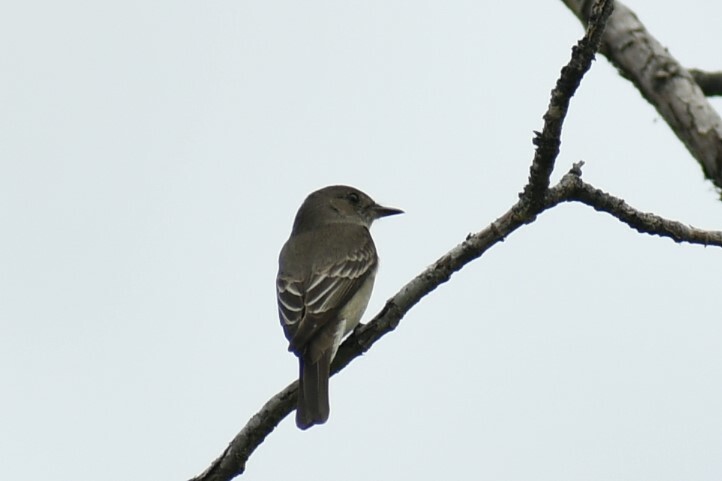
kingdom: Animalia
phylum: Chordata
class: Aves
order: Passeriformes
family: Tyrannidae
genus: Contopus
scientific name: Contopus sordidulus
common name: Western wood-pewee
